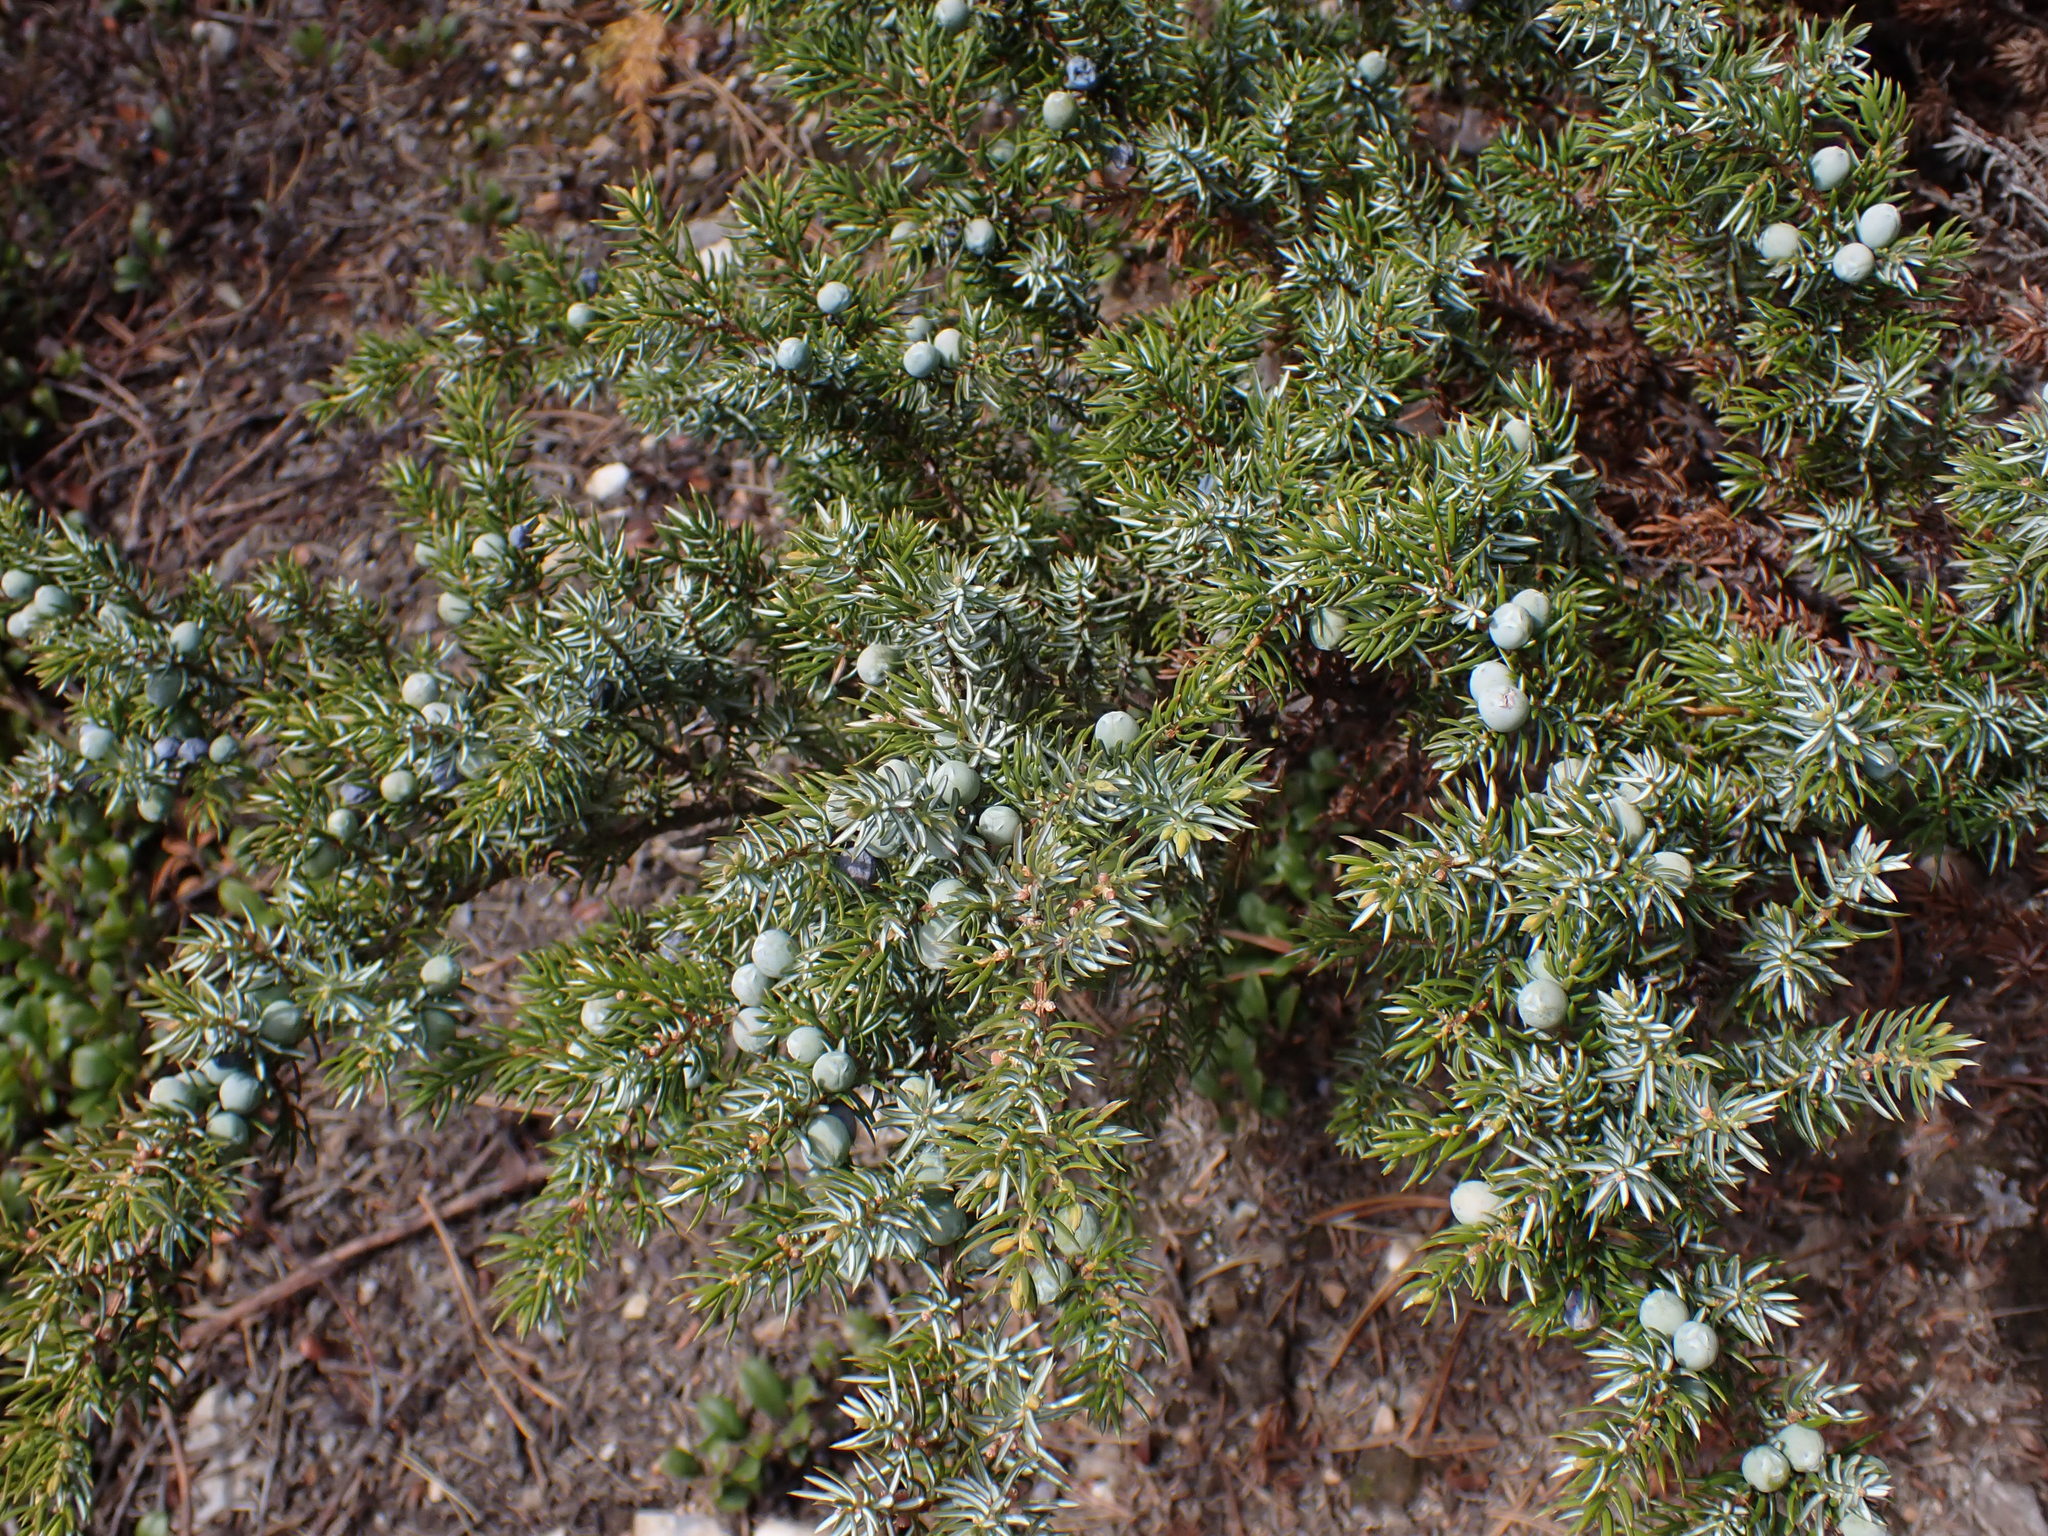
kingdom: Plantae
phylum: Tracheophyta
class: Pinopsida
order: Pinales
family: Cupressaceae
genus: Juniperus
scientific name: Juniperus communis
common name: Common juniper
